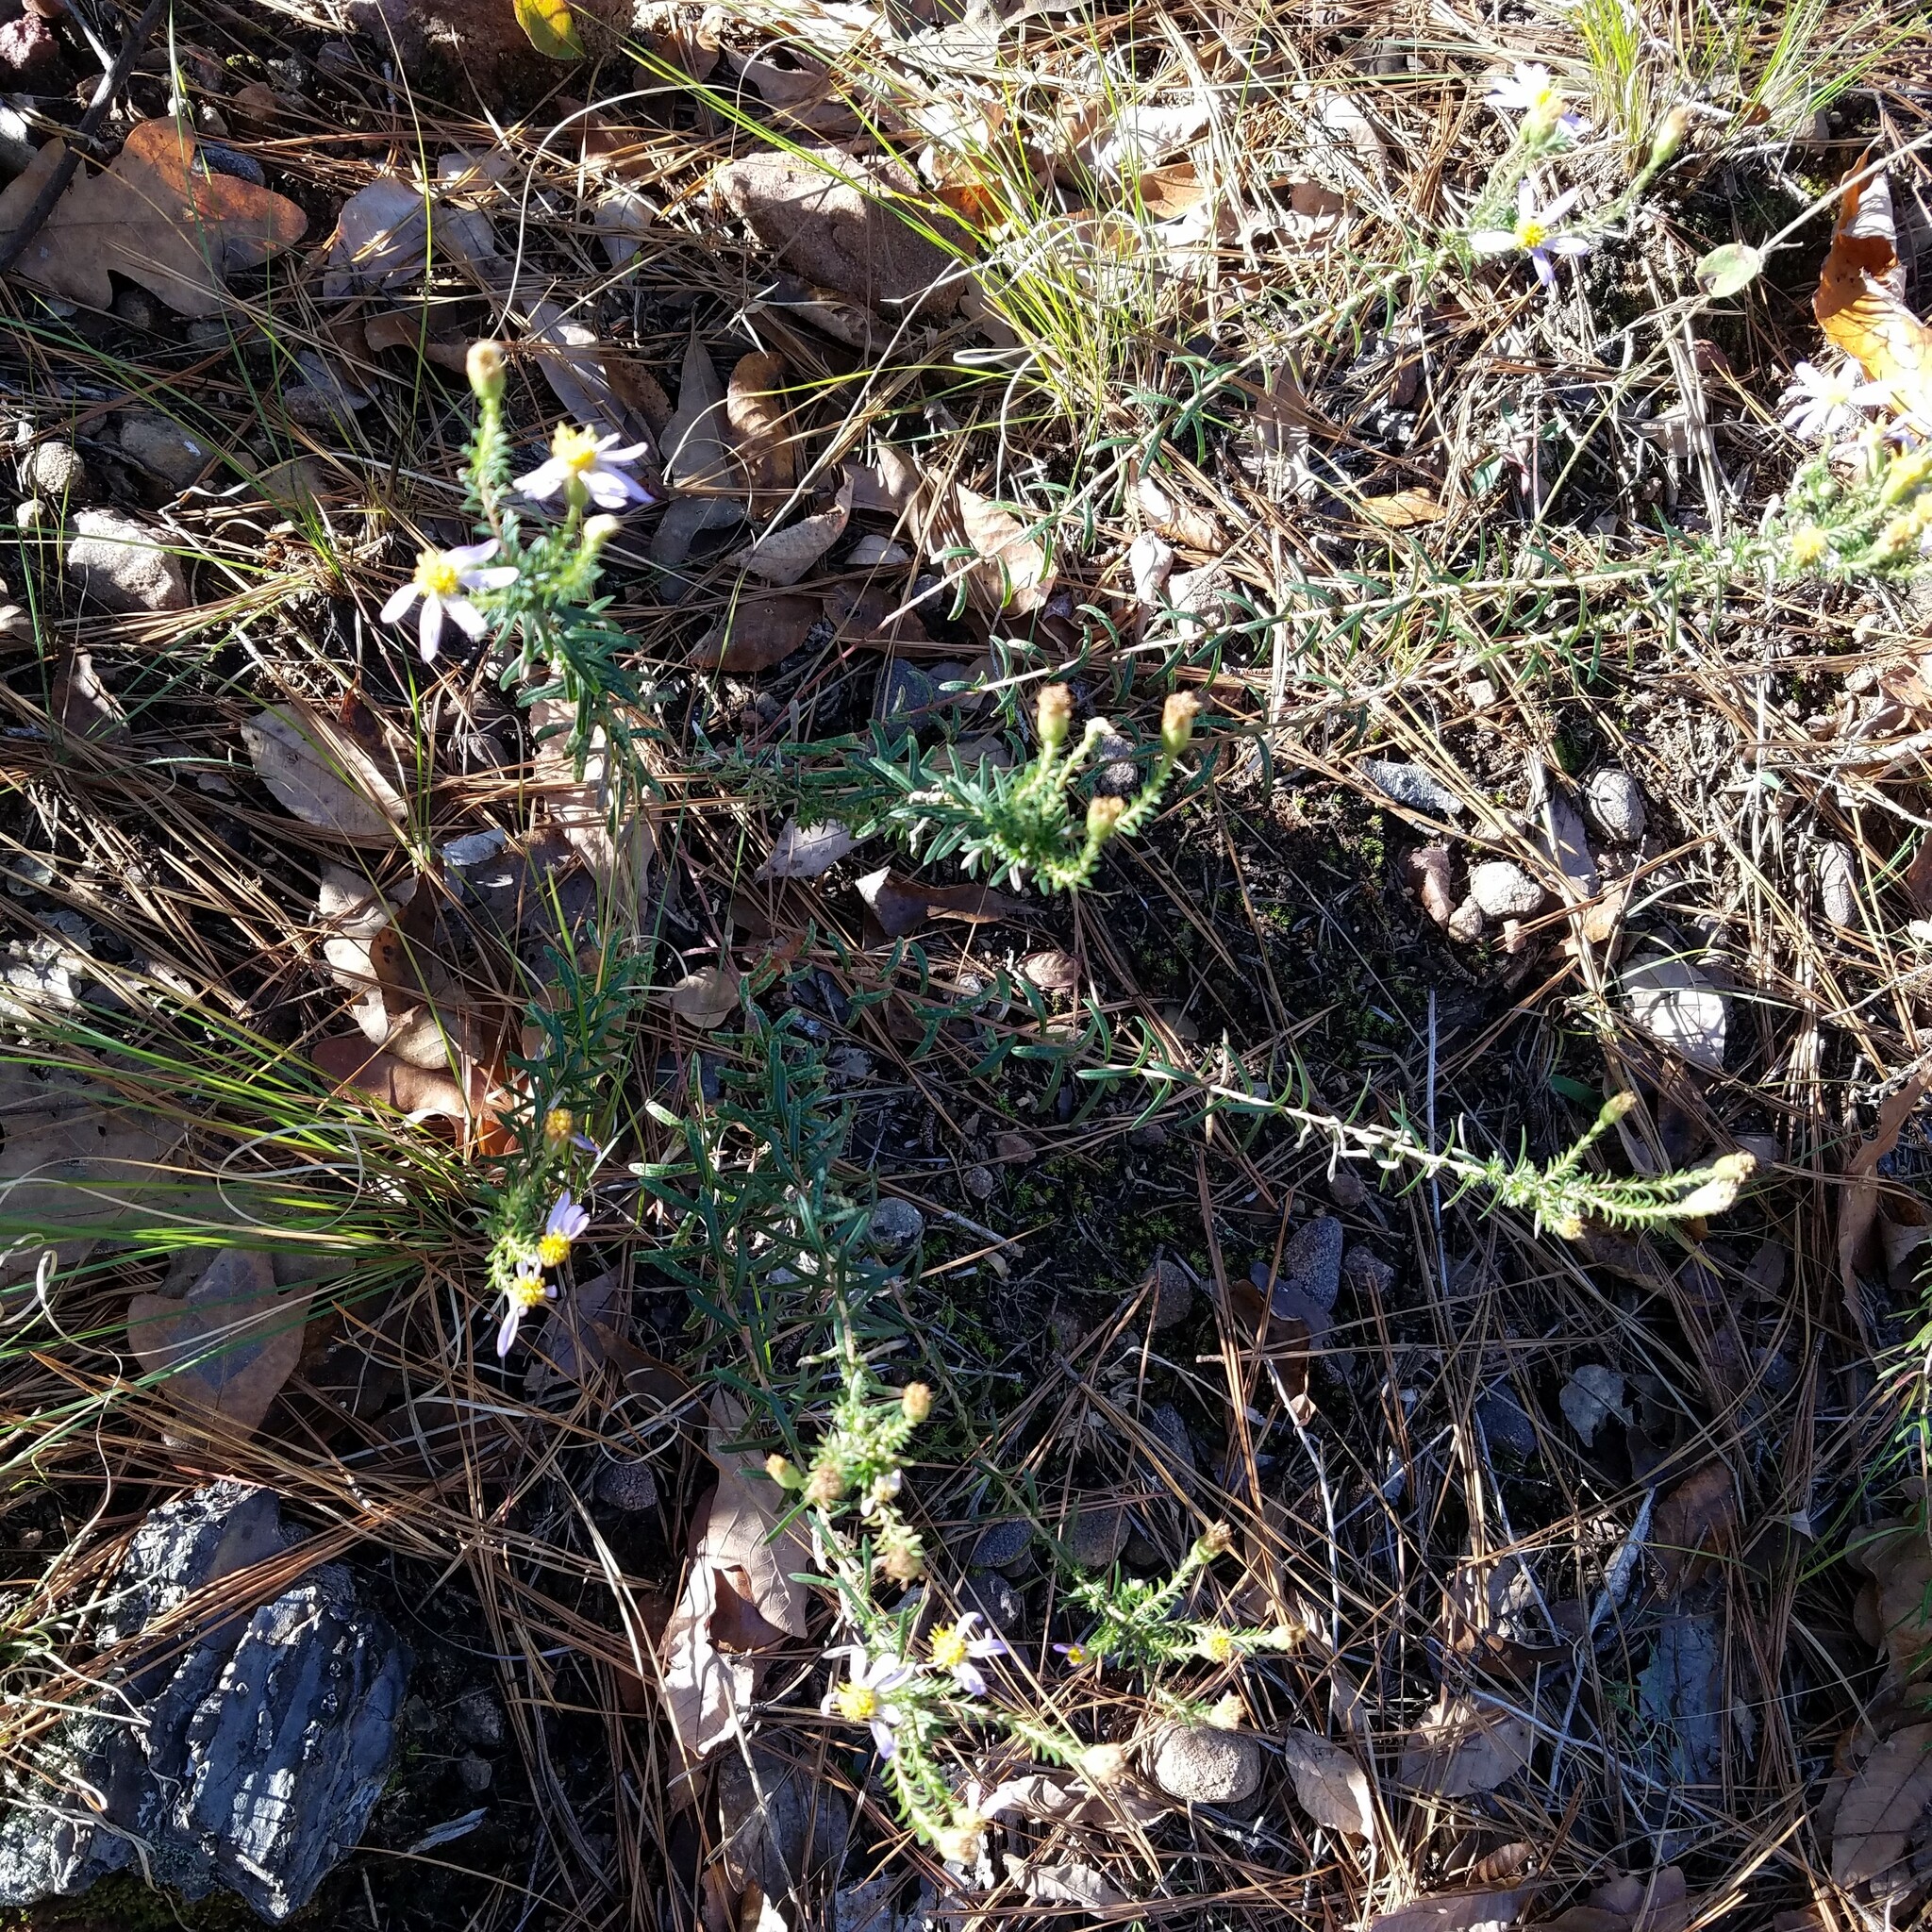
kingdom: Plantae
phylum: Tracheophyta
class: Magnoliopsida
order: Asterales
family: Asteraceae
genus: Ionactis
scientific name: Ionactis linariifolia
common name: Flax-leaf aster
